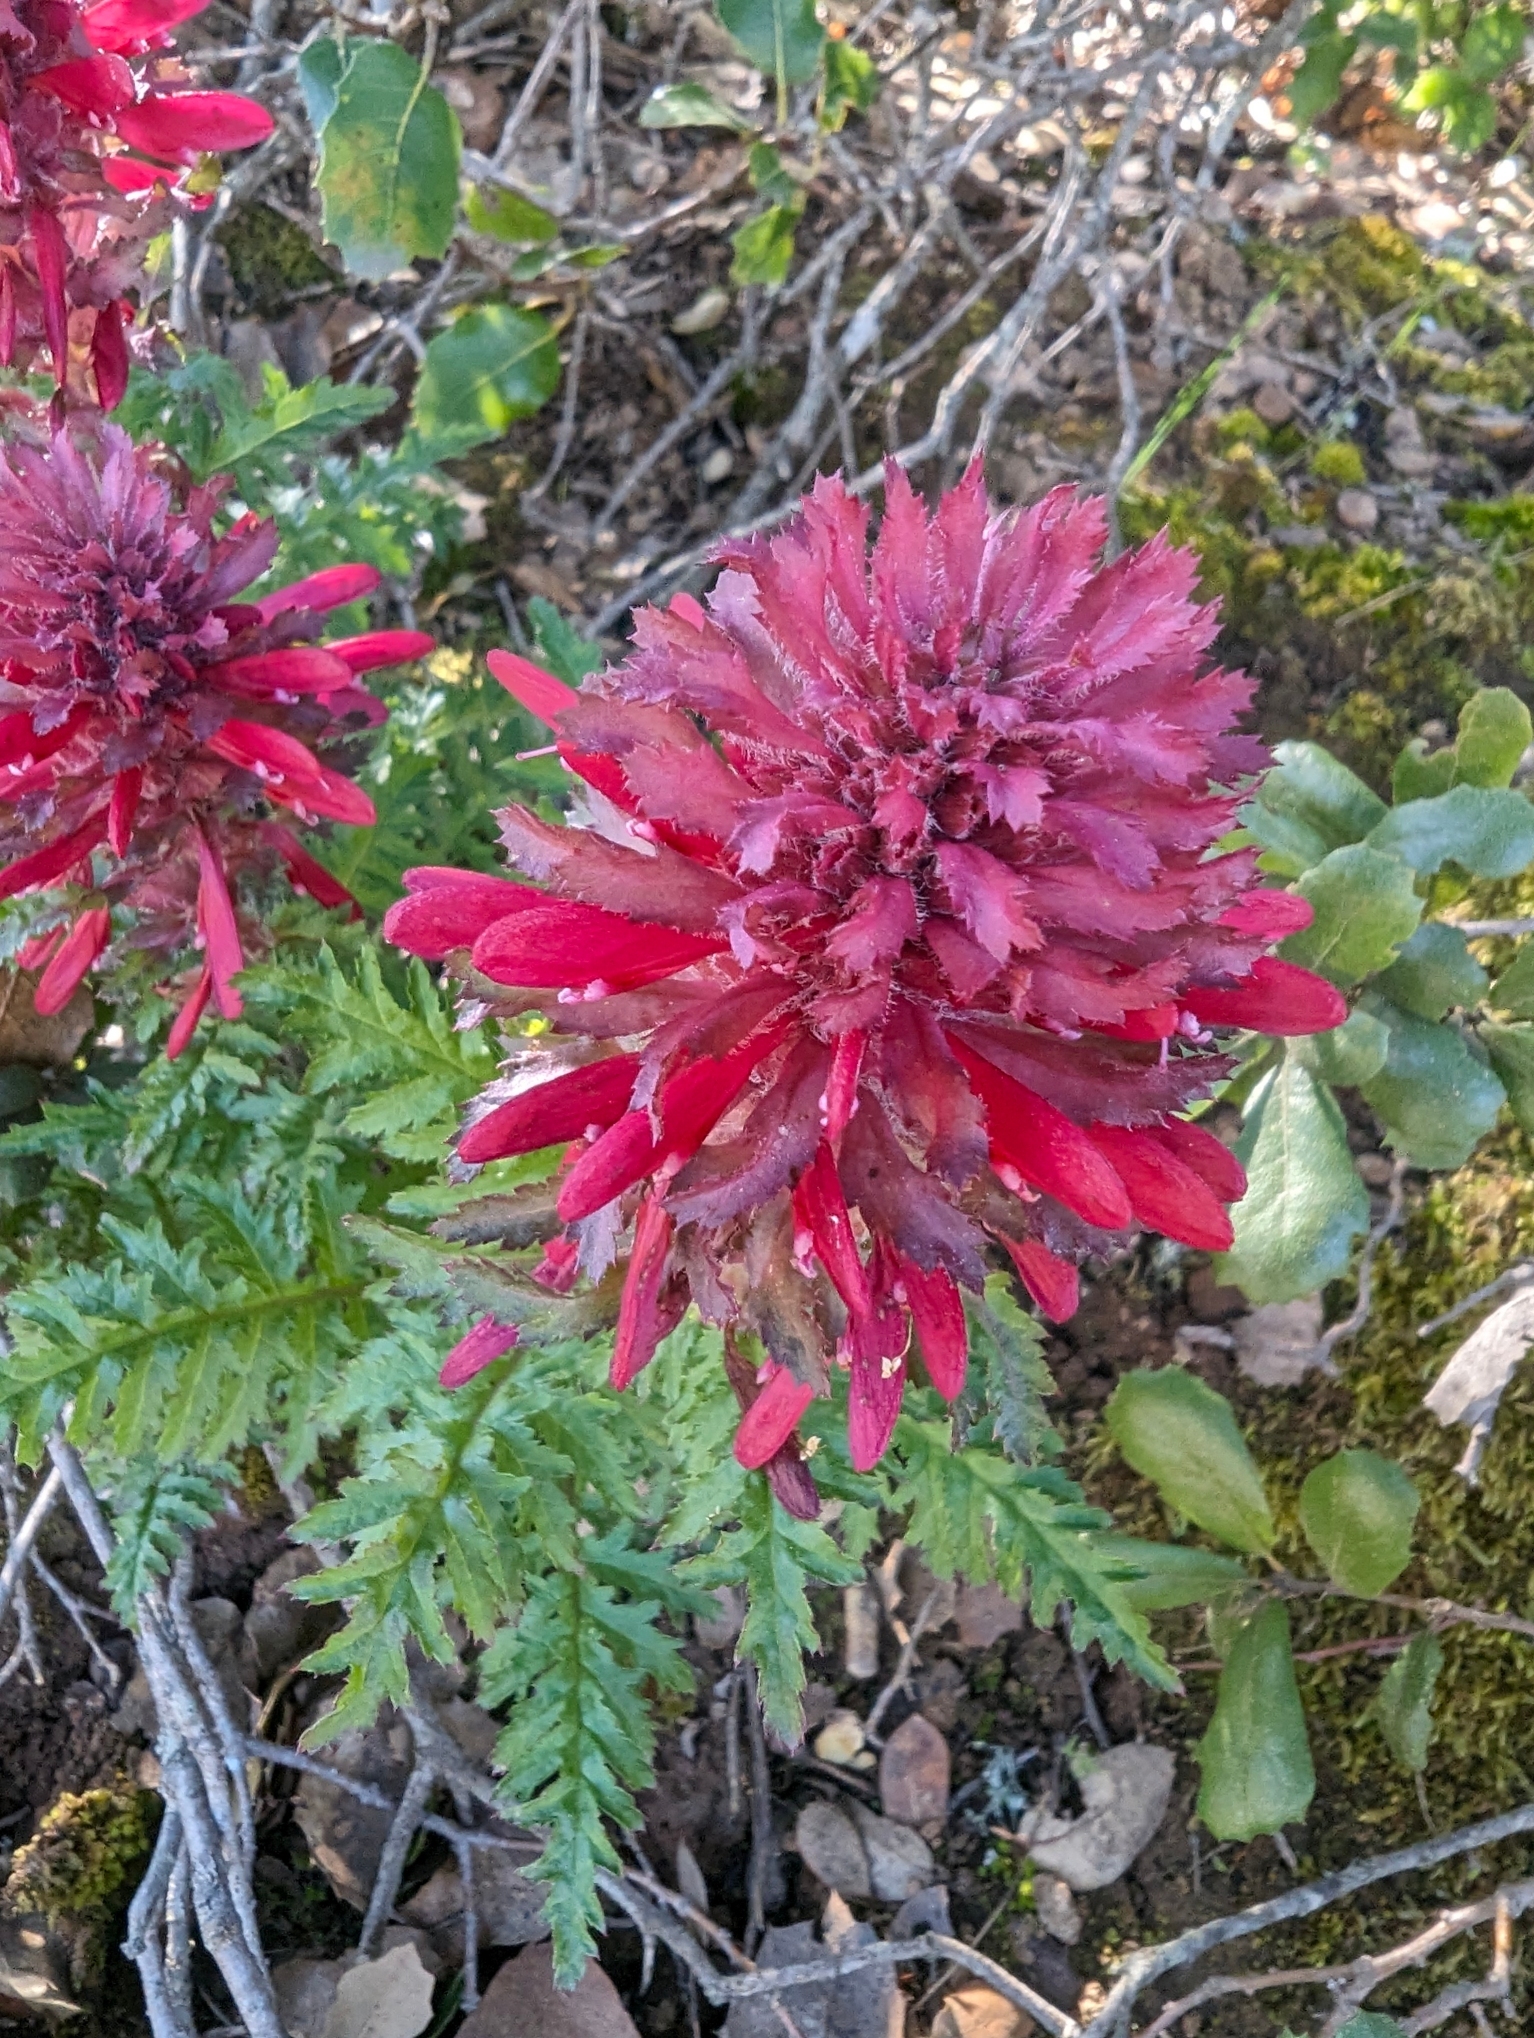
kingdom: Plantae
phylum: Tracheophyta
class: Magnoliopsida
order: Lamiales
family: Orobanchaceae
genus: Pedicularis
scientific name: Pedicularis densiflora
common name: Indian warrior
